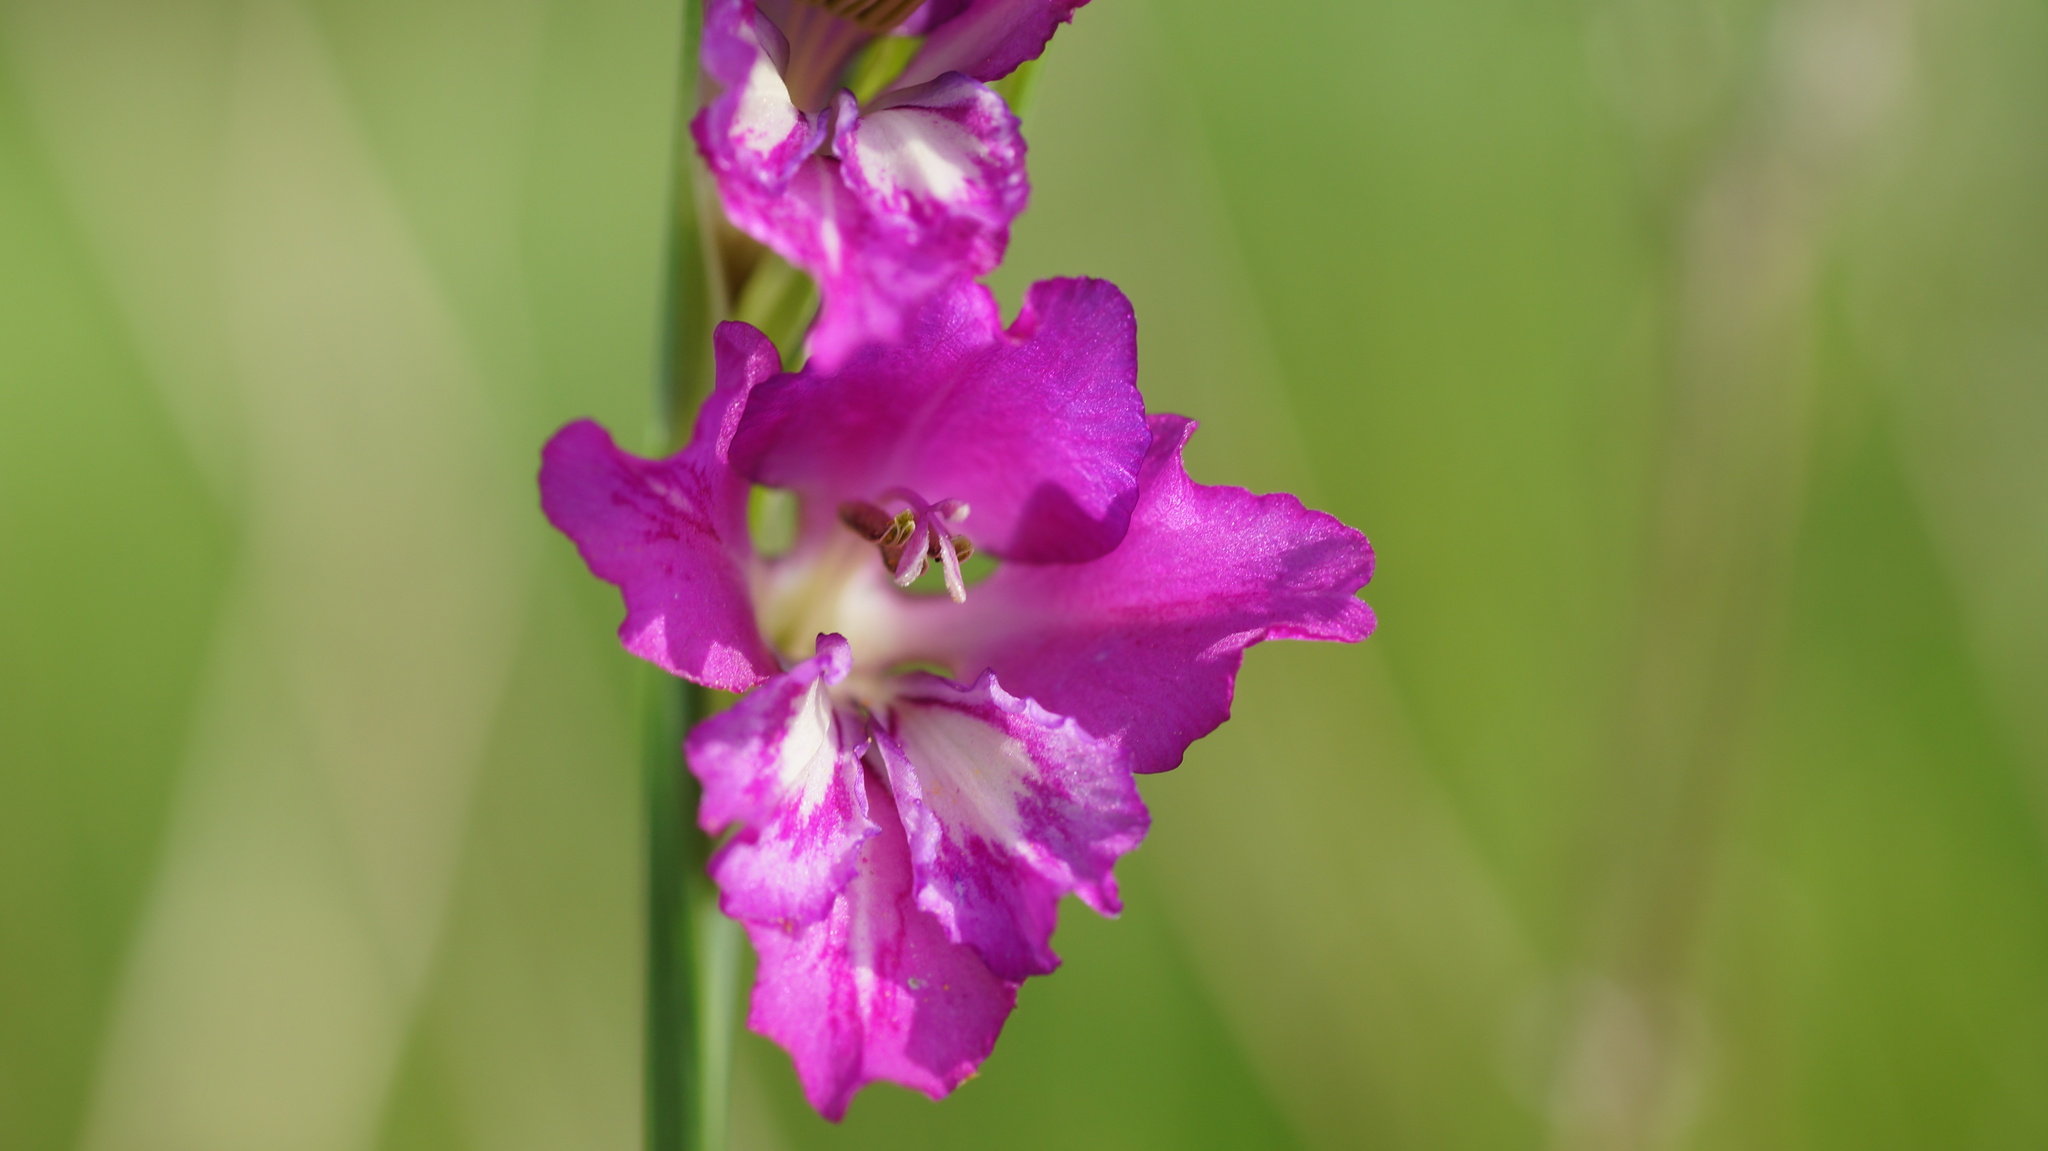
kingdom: Plantae
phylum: Tracheophyta
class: Liliopsida
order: Asparagales
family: Iridaceae
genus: Gladiolus
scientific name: Gladiolus tenuis
